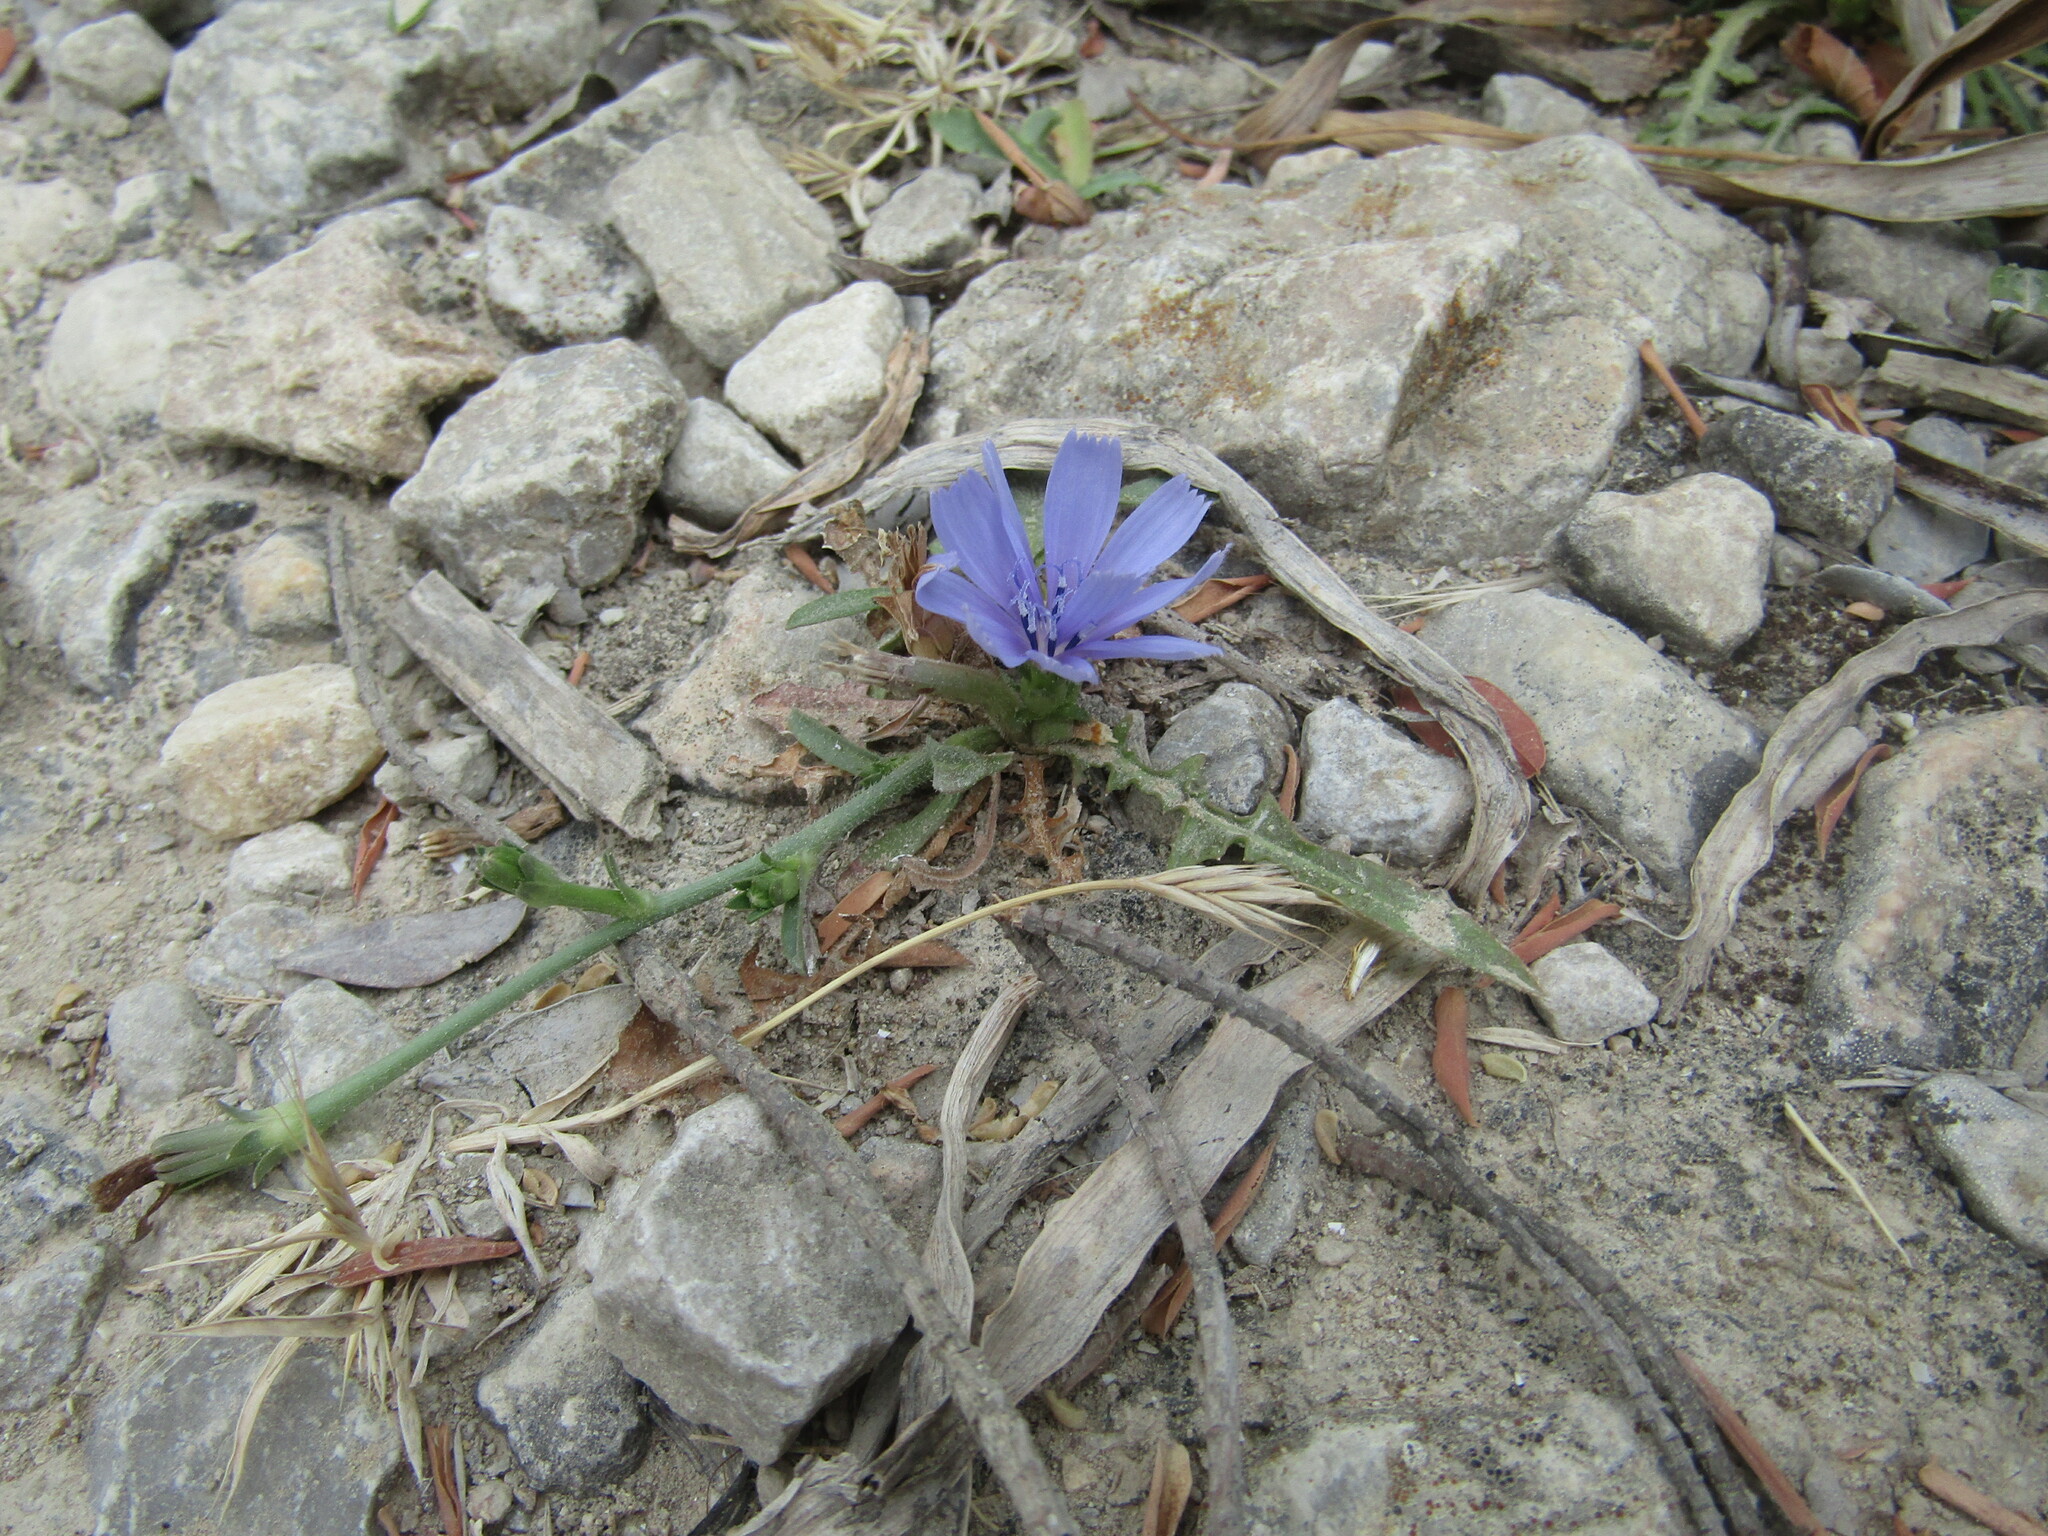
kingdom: Plantae
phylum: Tracheophyta
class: Magnoliopsida
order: Asterales
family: Asteraceae
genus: Cichorium
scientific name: Cichorium intybus
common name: Chicory
